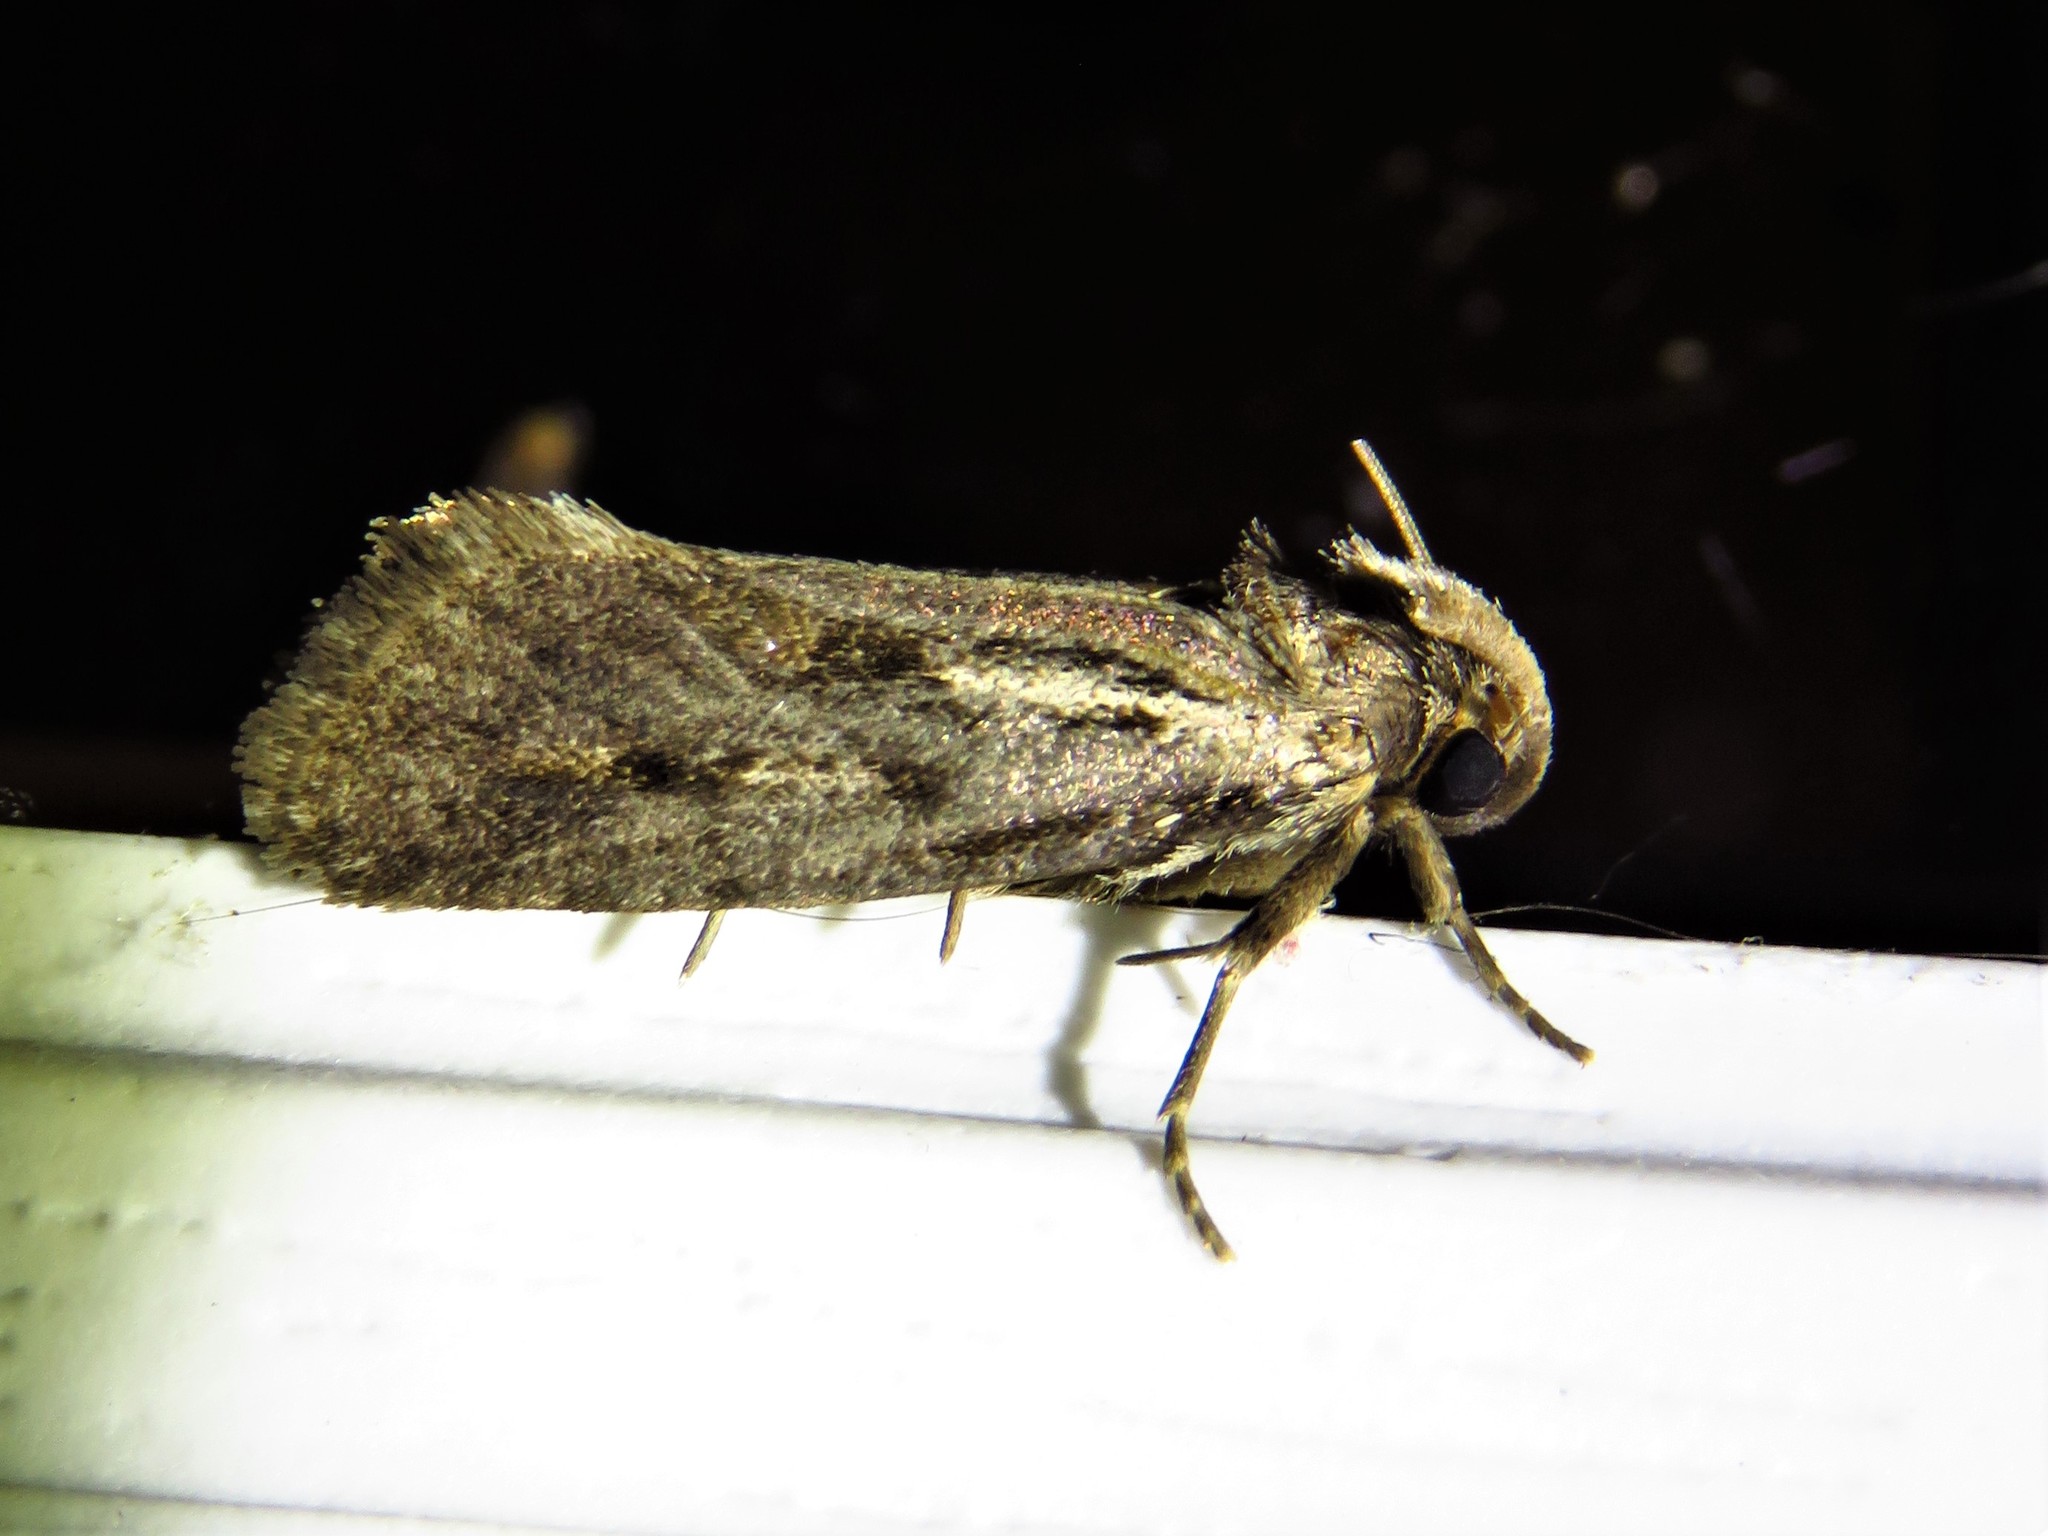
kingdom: Animalia
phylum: Arthropoda
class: Insecta
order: Lepidoptera
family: Tineidae
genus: Acrolophus
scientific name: Acrolophus popeanella
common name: Clemens' grass tubeworm moth
